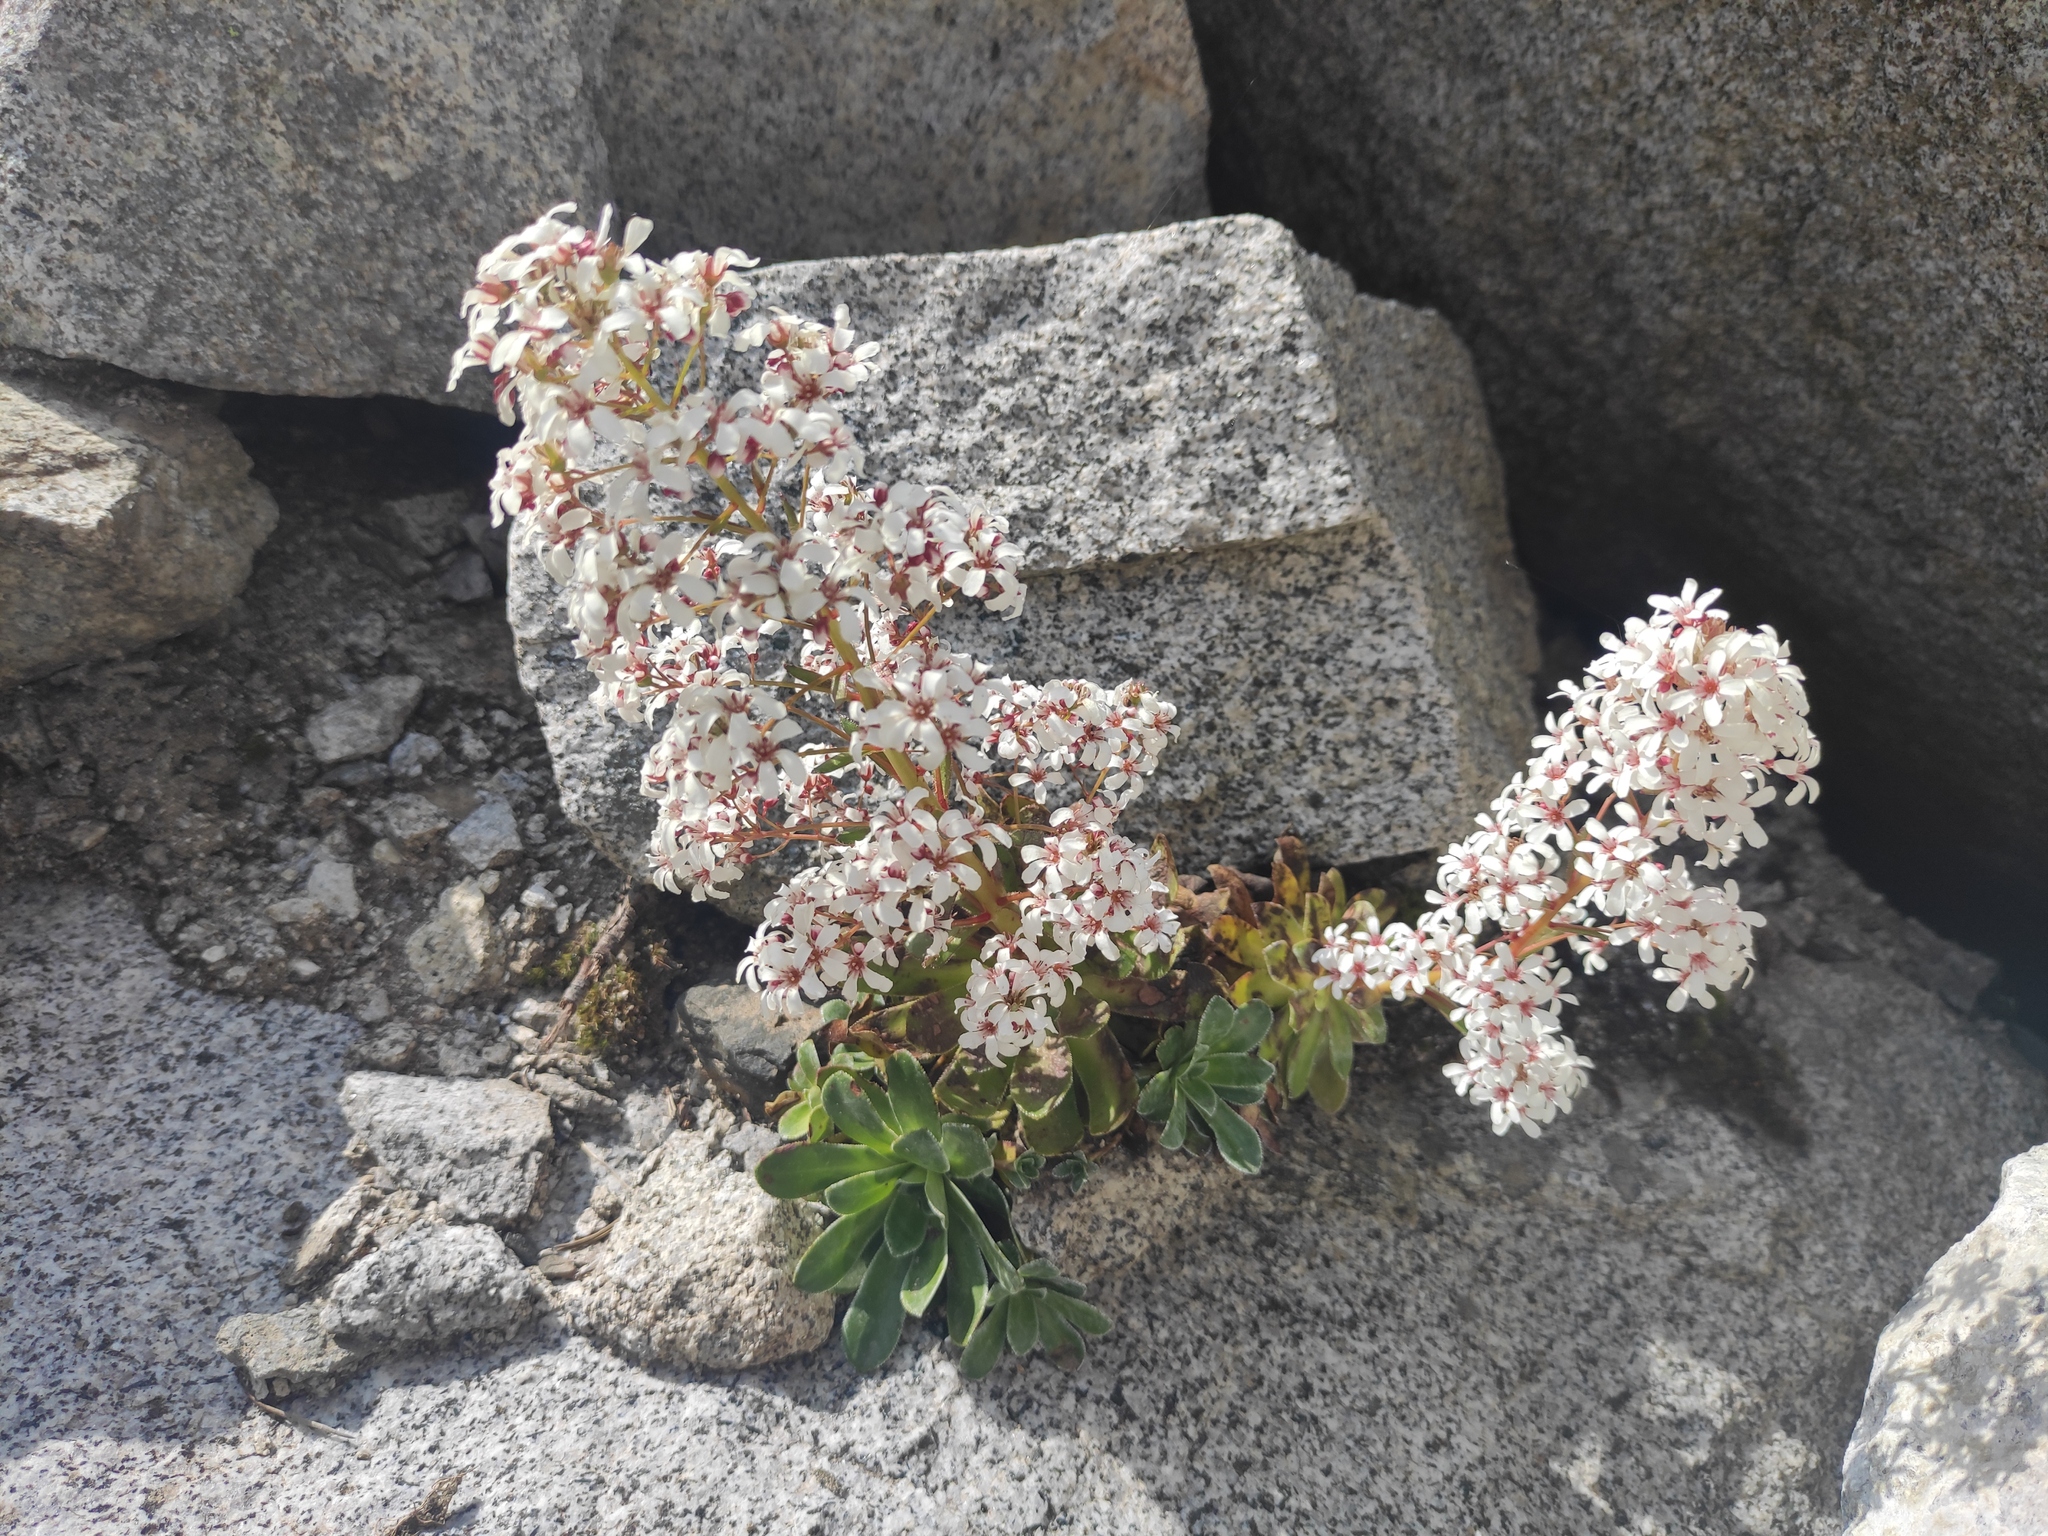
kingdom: Plantae
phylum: Tracheophyta
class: Magnoliopsida
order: Saxifragales
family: Saxifragaceae
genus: Saxifraga
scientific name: Saxifraga cotyledon
